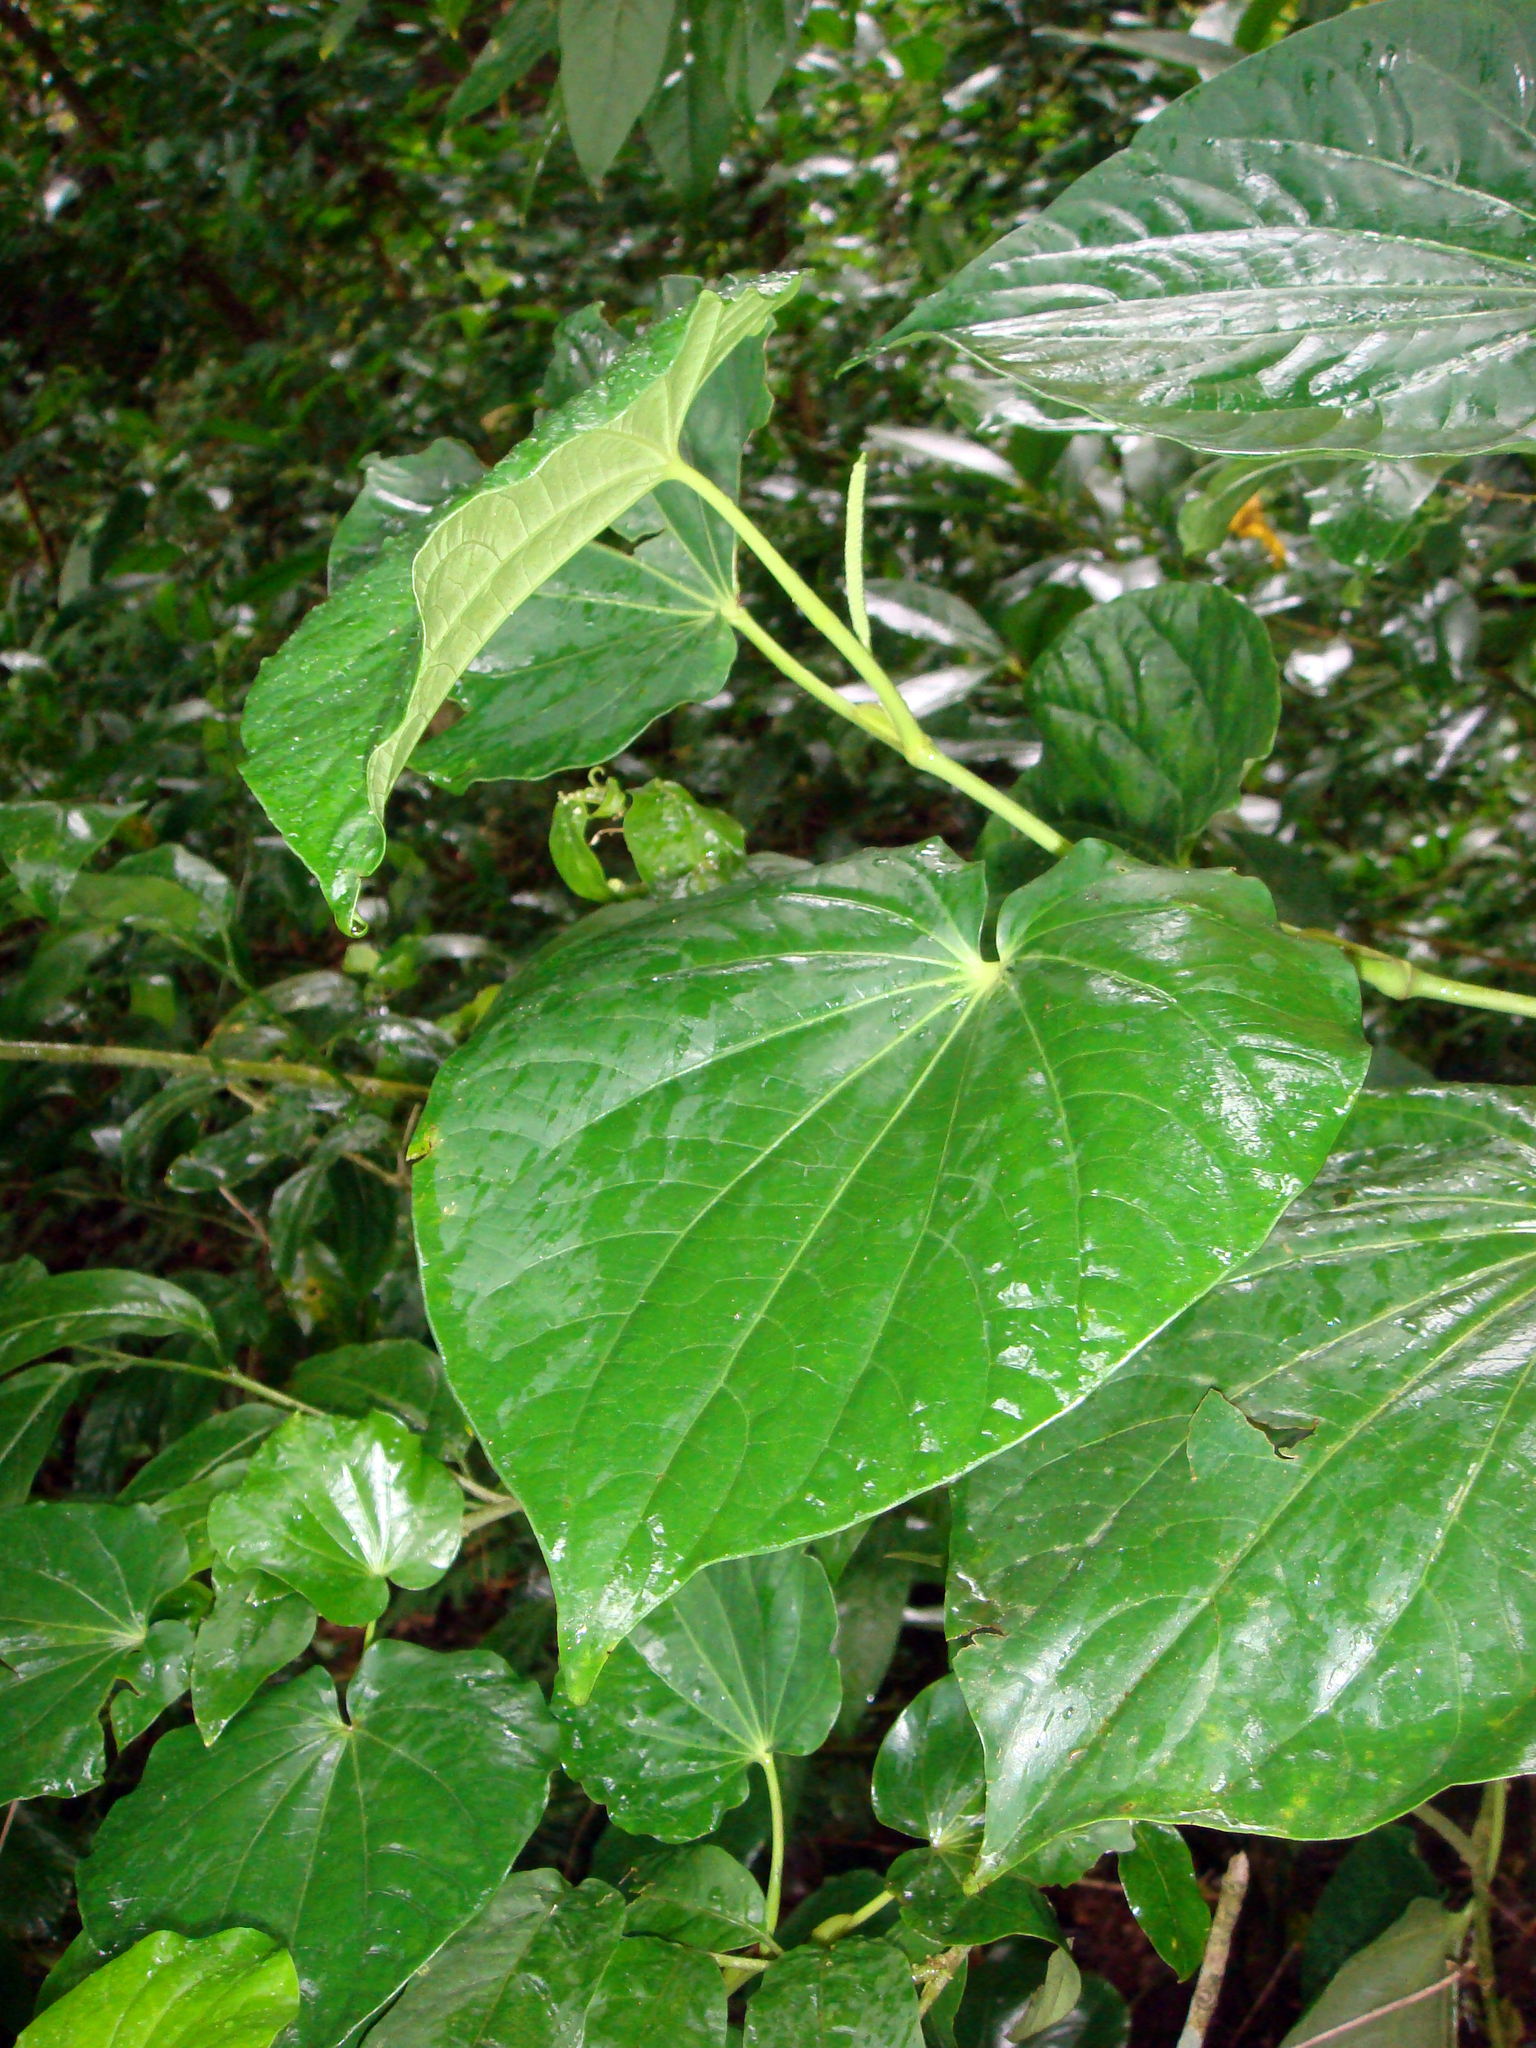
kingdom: Plantae
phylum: Tracheophyta
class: Magnoliopsida
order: Piperales
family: Piperaceae
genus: Piper
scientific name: Piper latifolium
